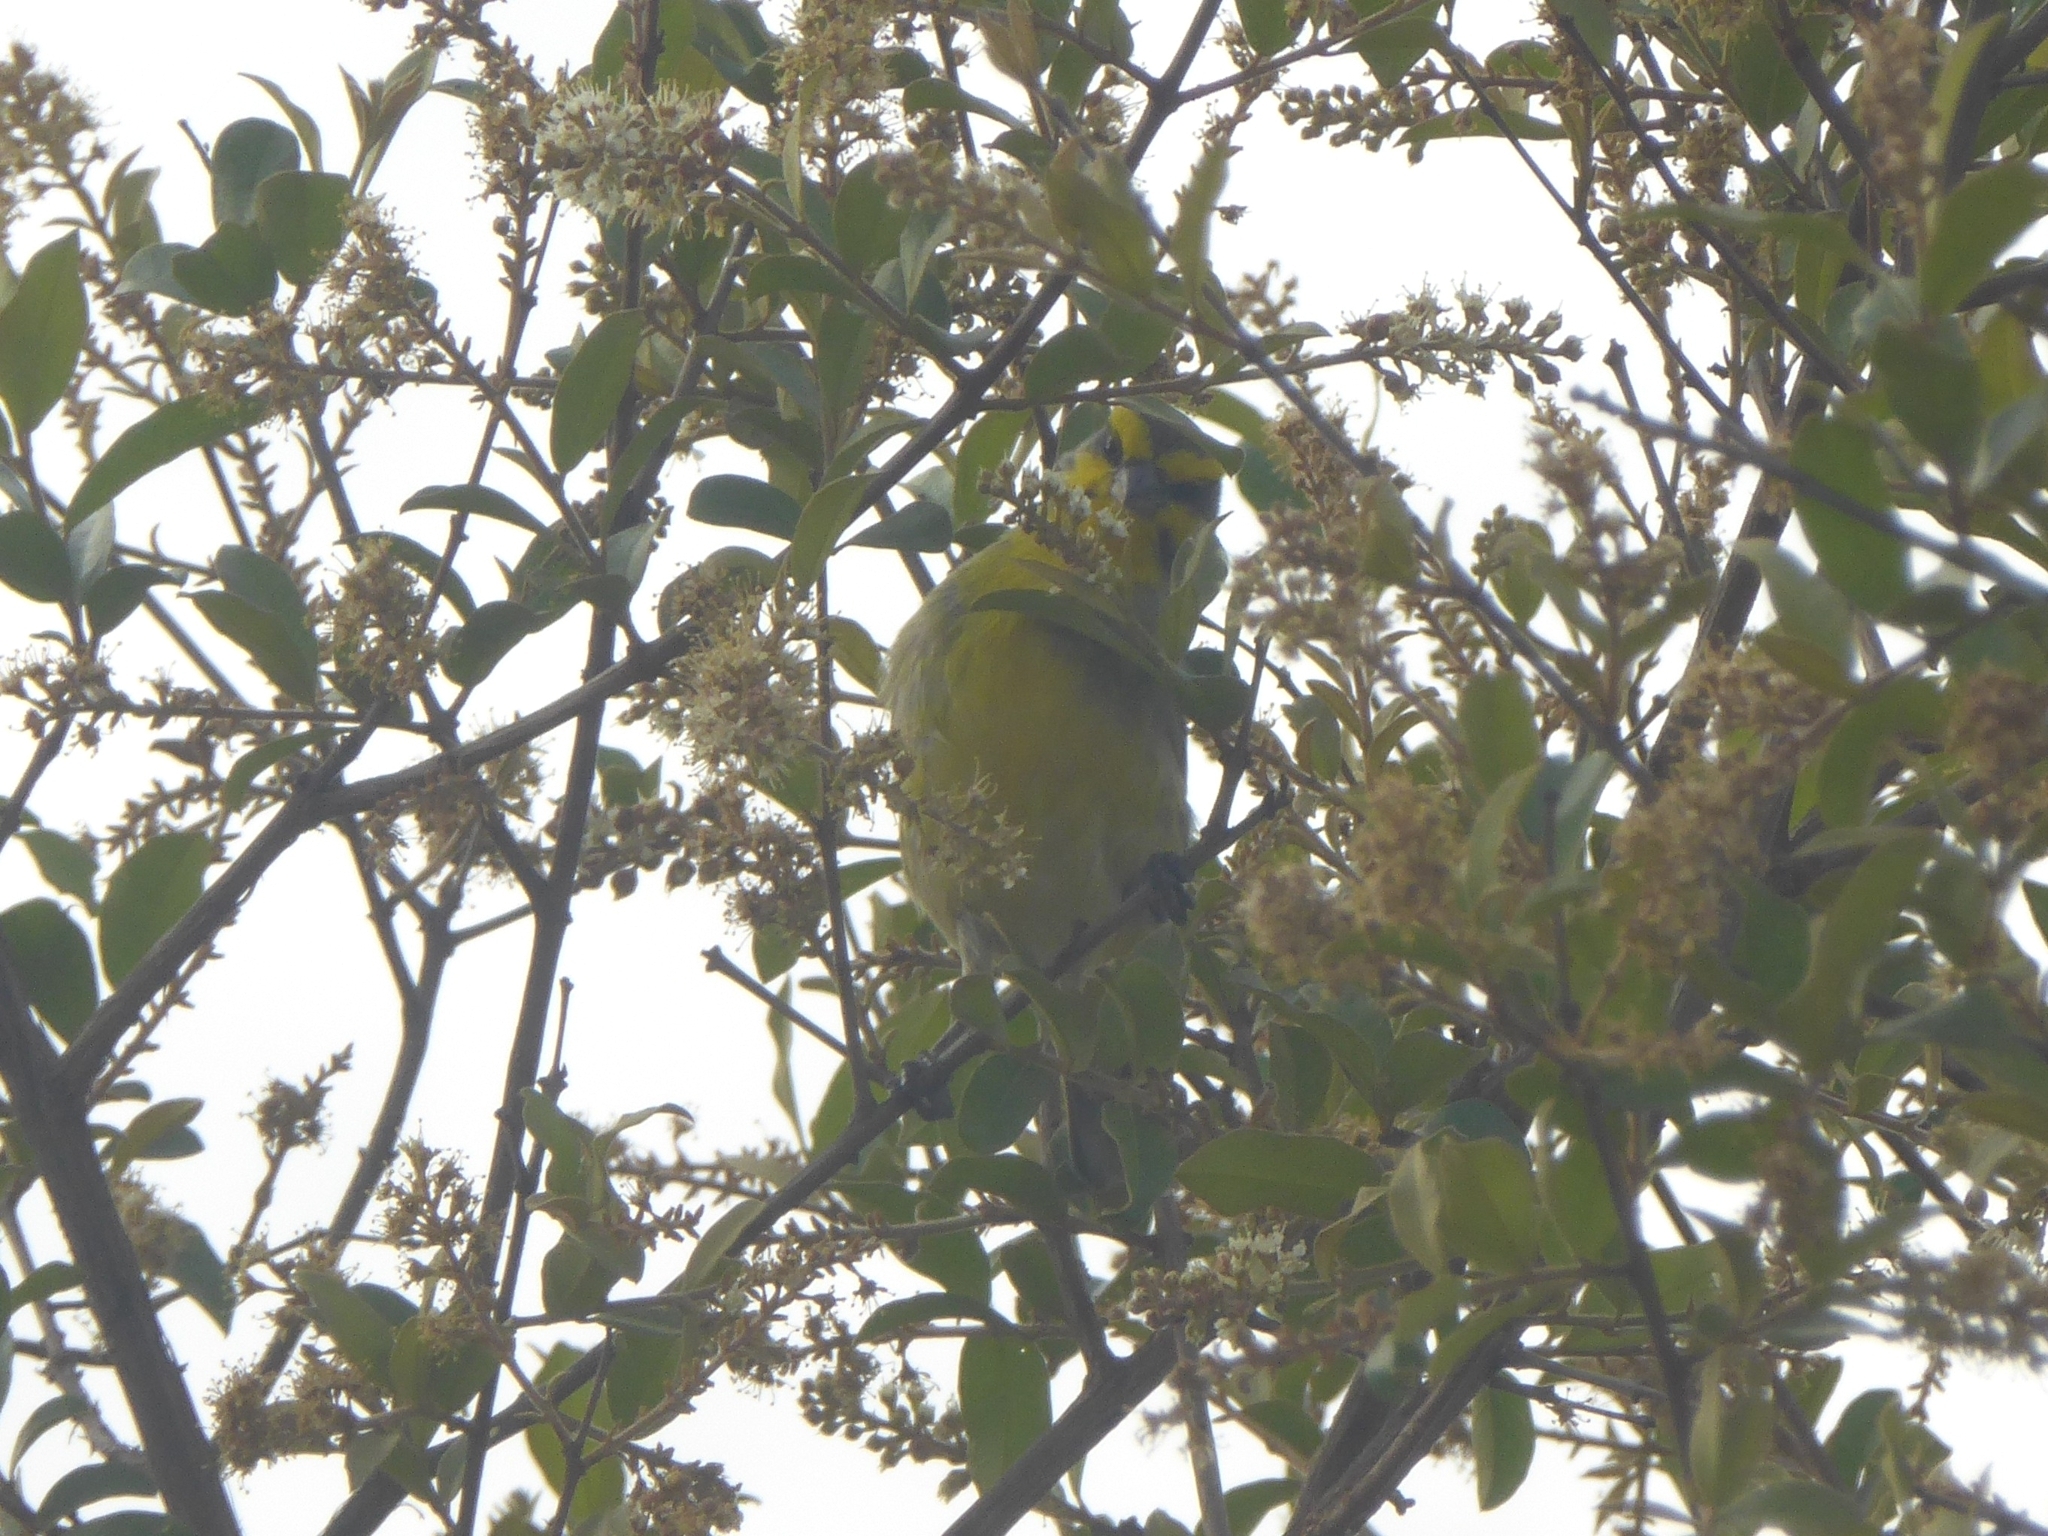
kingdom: Animalia
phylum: Chordata
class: Aves
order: Passeriformes
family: Fringillidae
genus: Crithagra
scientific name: Crithagra mozambica
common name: Yellow-fronted canary
